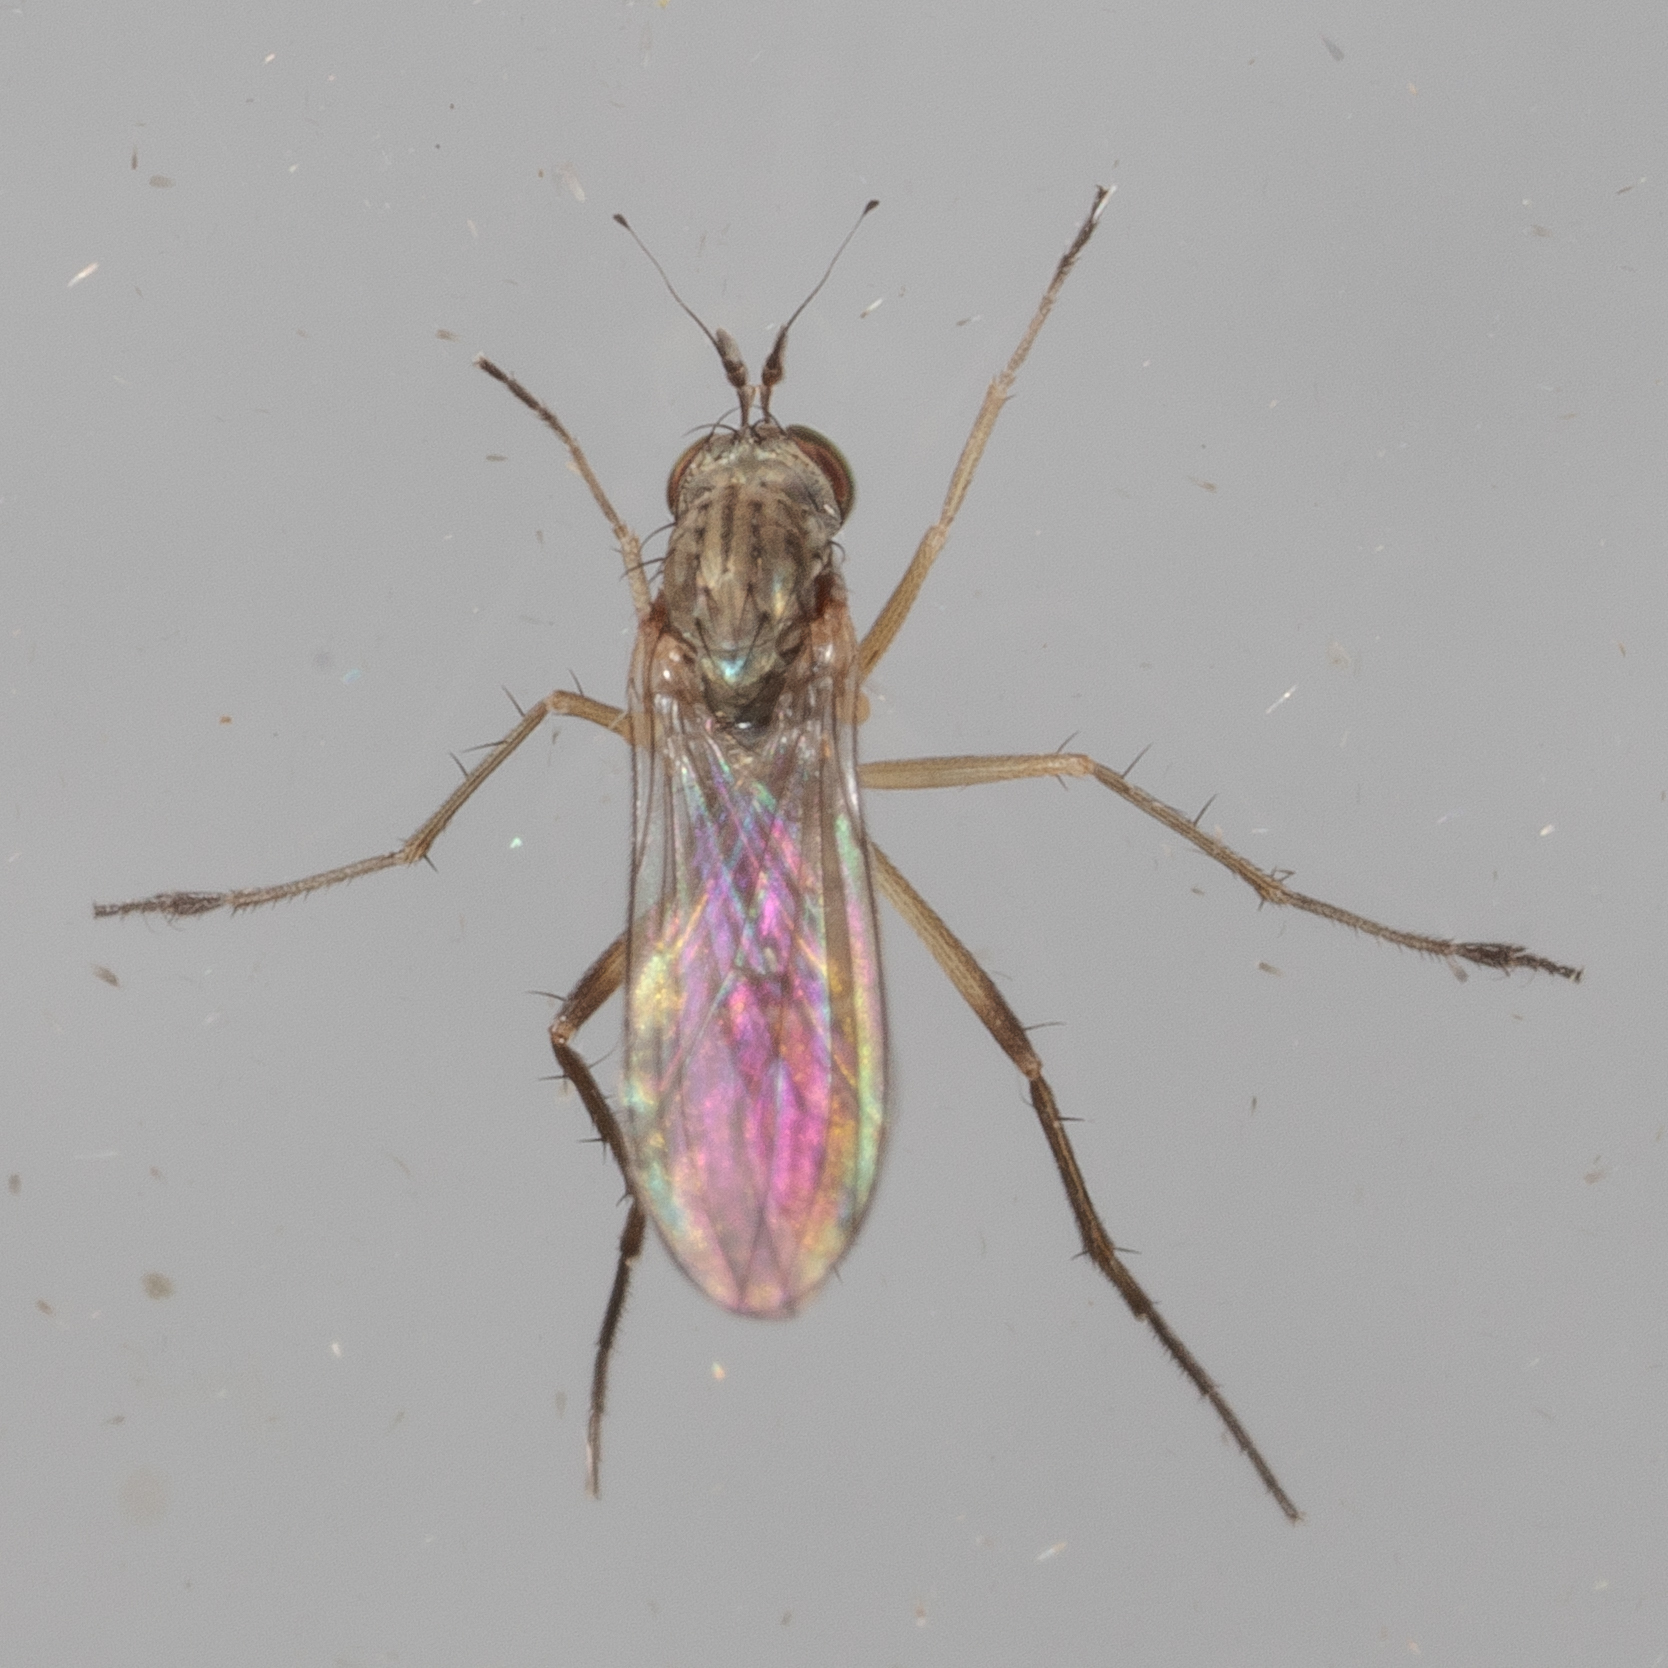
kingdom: Animalia
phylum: Arthropoda
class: Insecta
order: Diptera
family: Dolichopodidae
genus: Calyxochaetus
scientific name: Calyxochaetus
